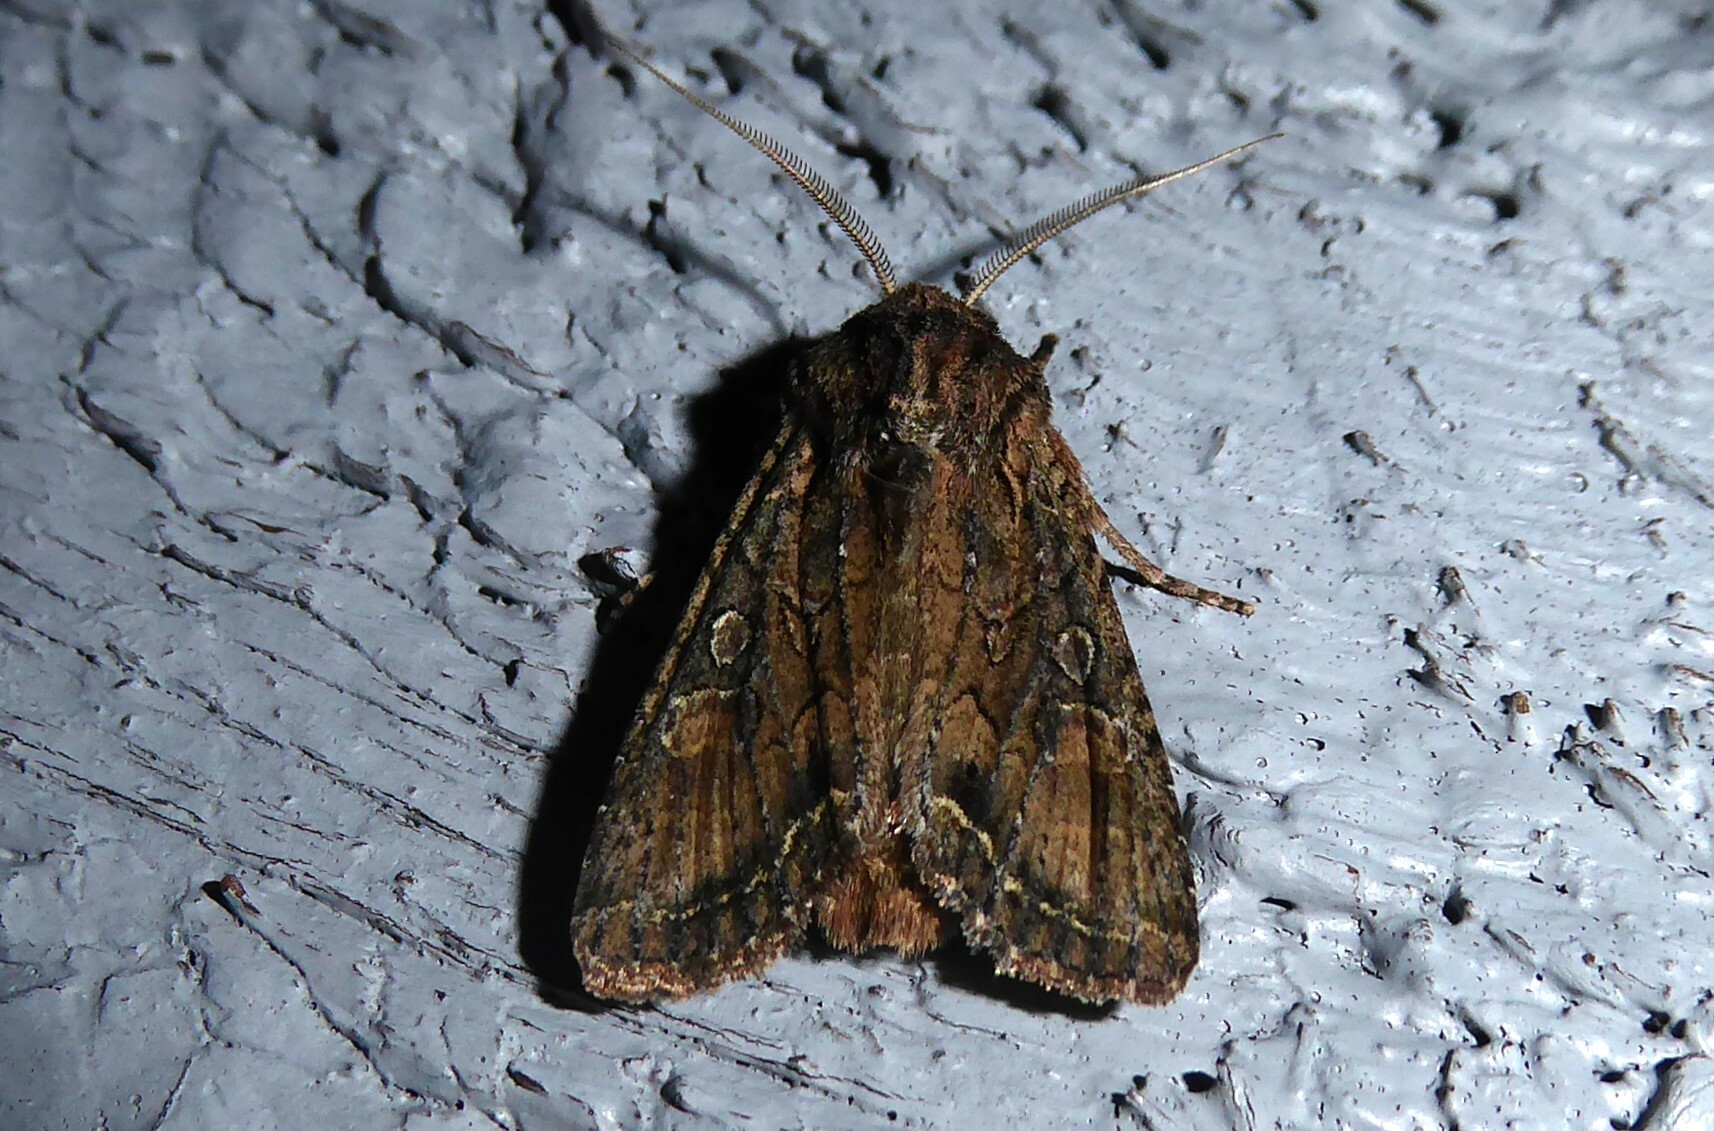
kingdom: Animalia
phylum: Arthropoda
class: Insecta
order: Lepidoptera
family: Noctuidae
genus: Ichneutica
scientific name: Ichneutica mutans
